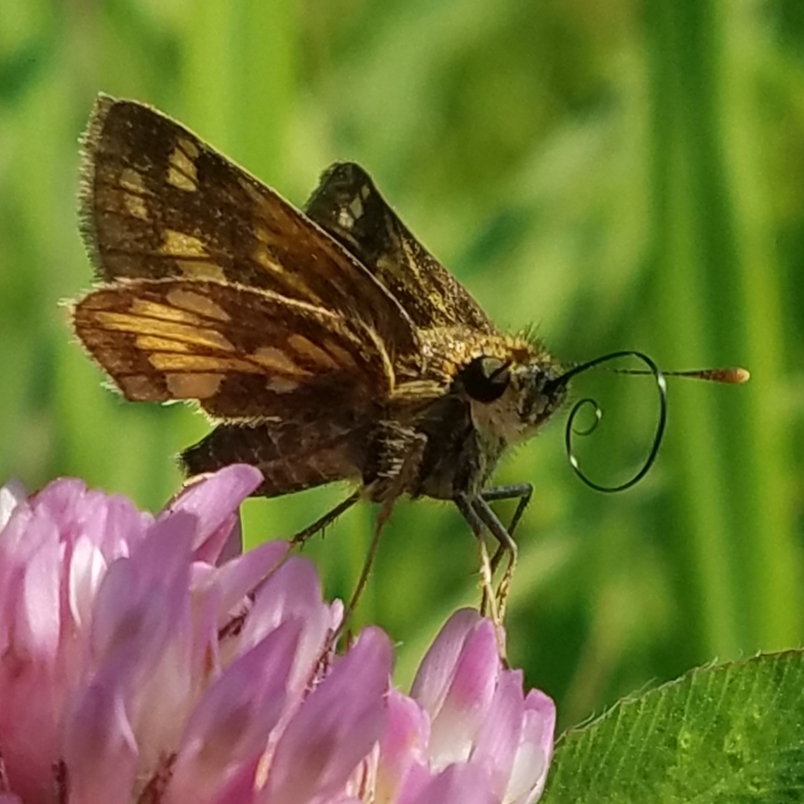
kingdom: Animalia
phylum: Arthropoda
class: Insecta
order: Lepidoptera
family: Hesperiidae
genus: Polites
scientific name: Polites coras
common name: Peck's skipper
